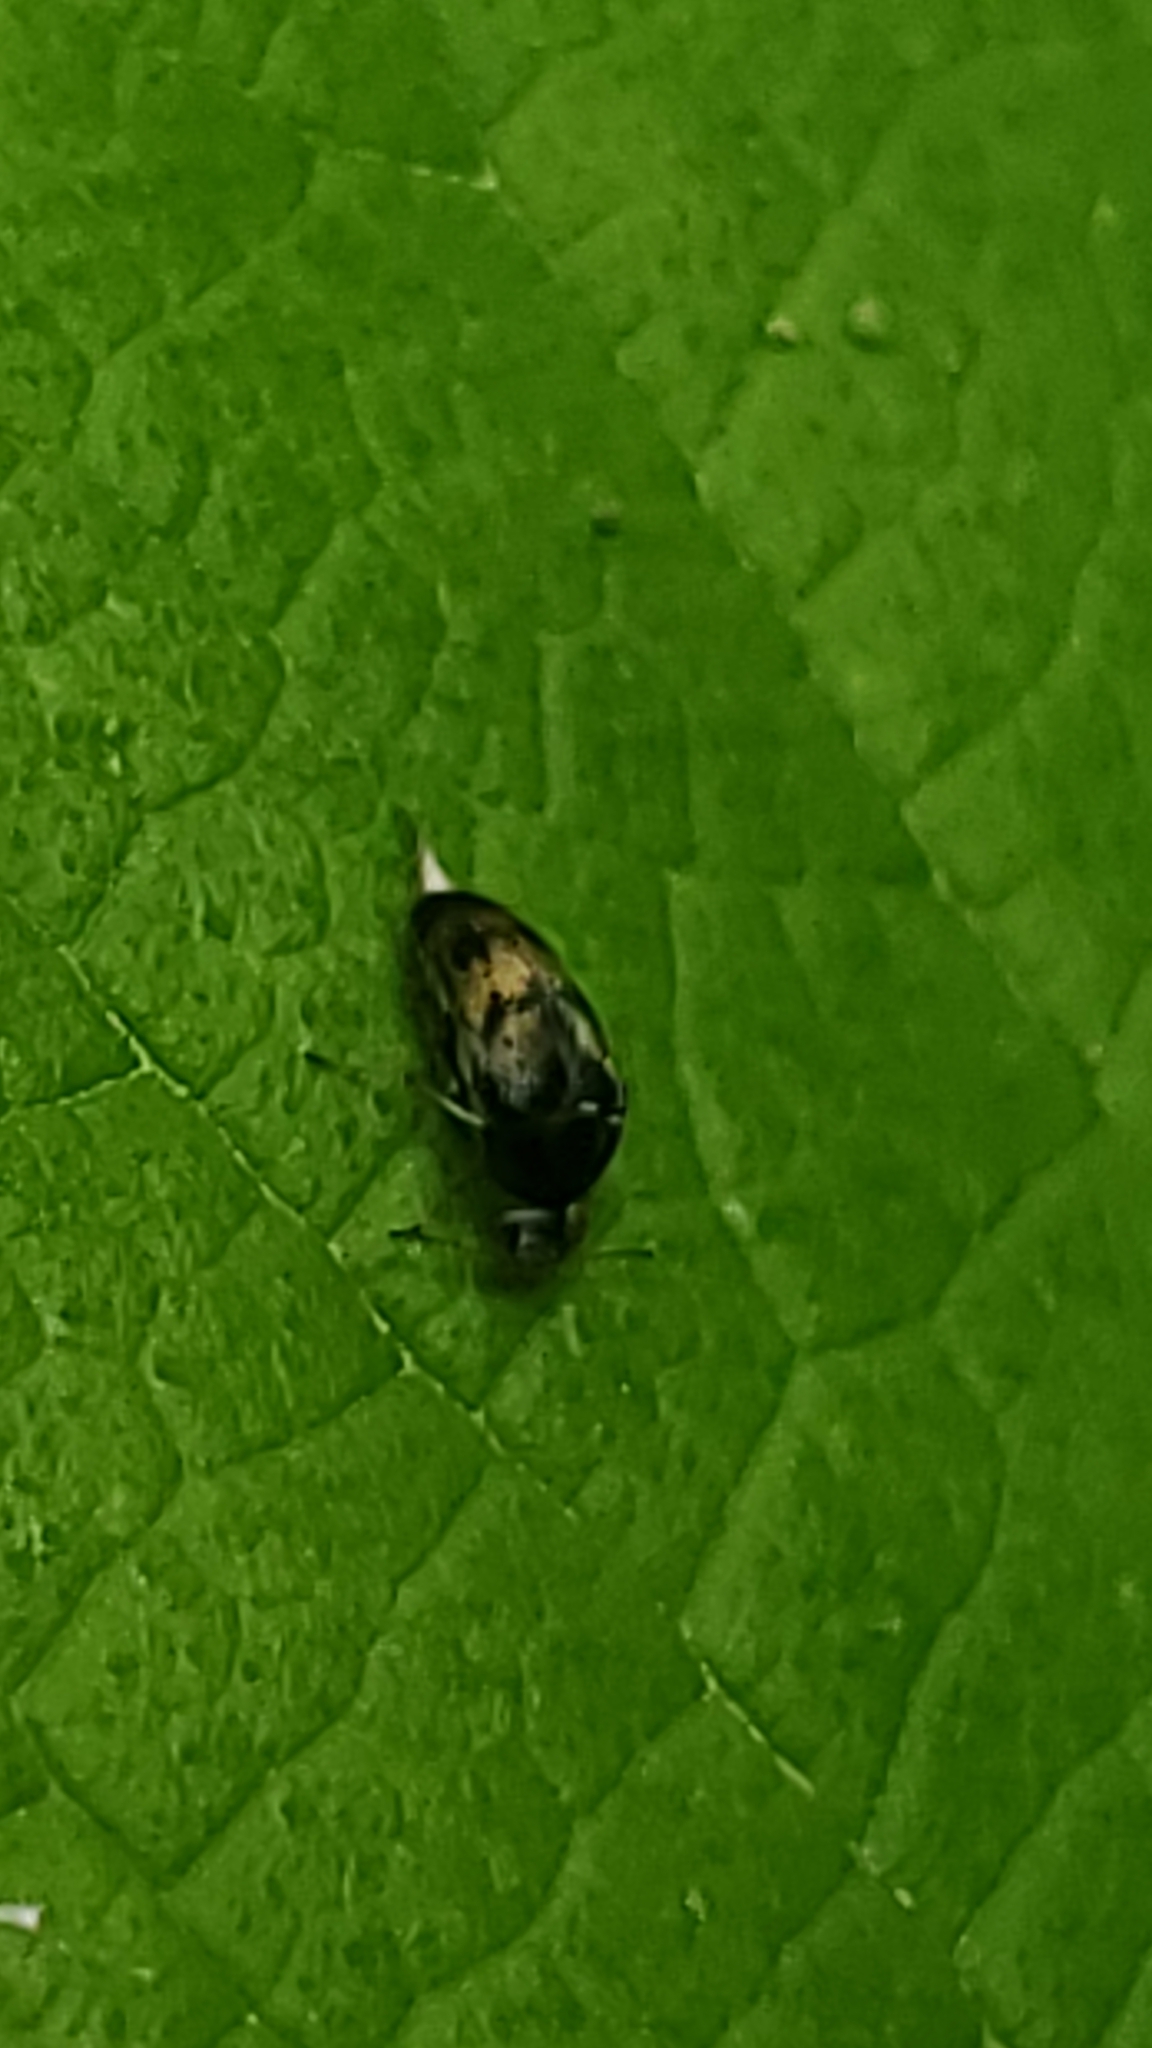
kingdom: Animalia
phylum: Arthropoda
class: Insecta
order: Coleoptera
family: Mordellidae
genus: Paramordellaria
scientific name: Paramordellaria triloba
